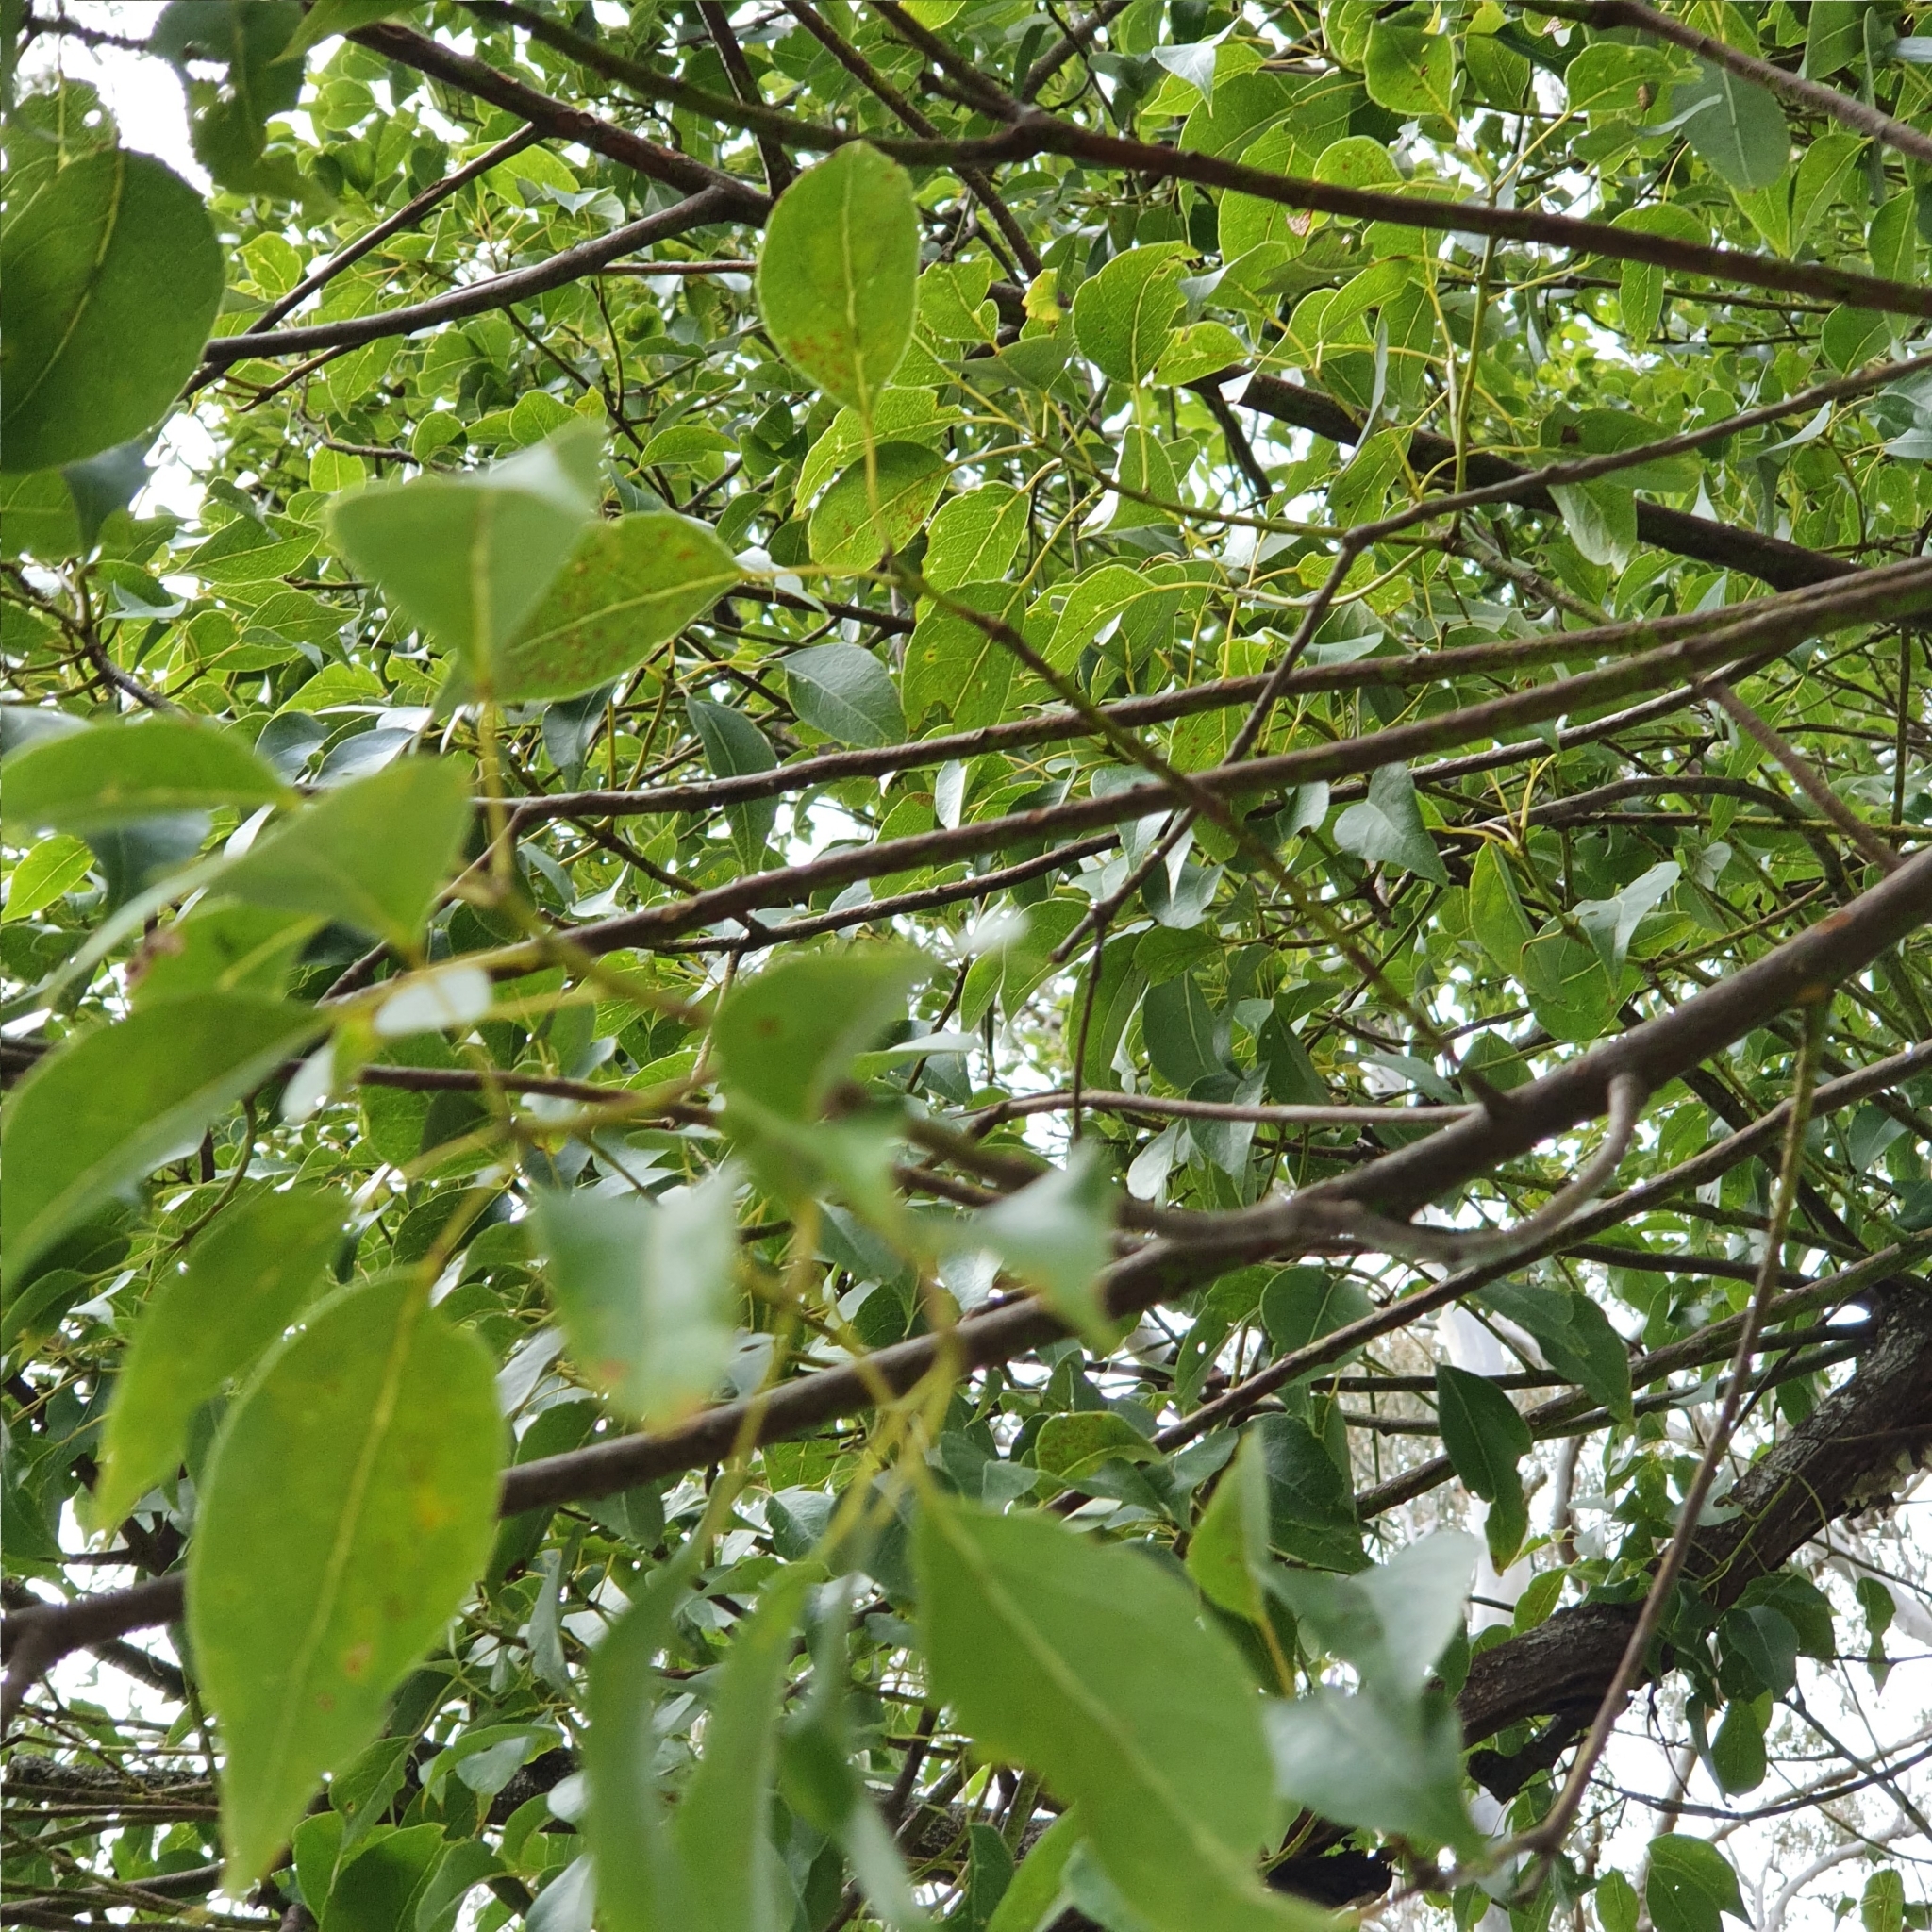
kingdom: Plantae
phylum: Tracheophyta
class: Magnoliopsida
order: Malvales
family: Malvaceae
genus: Brachychiton
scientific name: Brachychiton populneus
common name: Kurrajong
